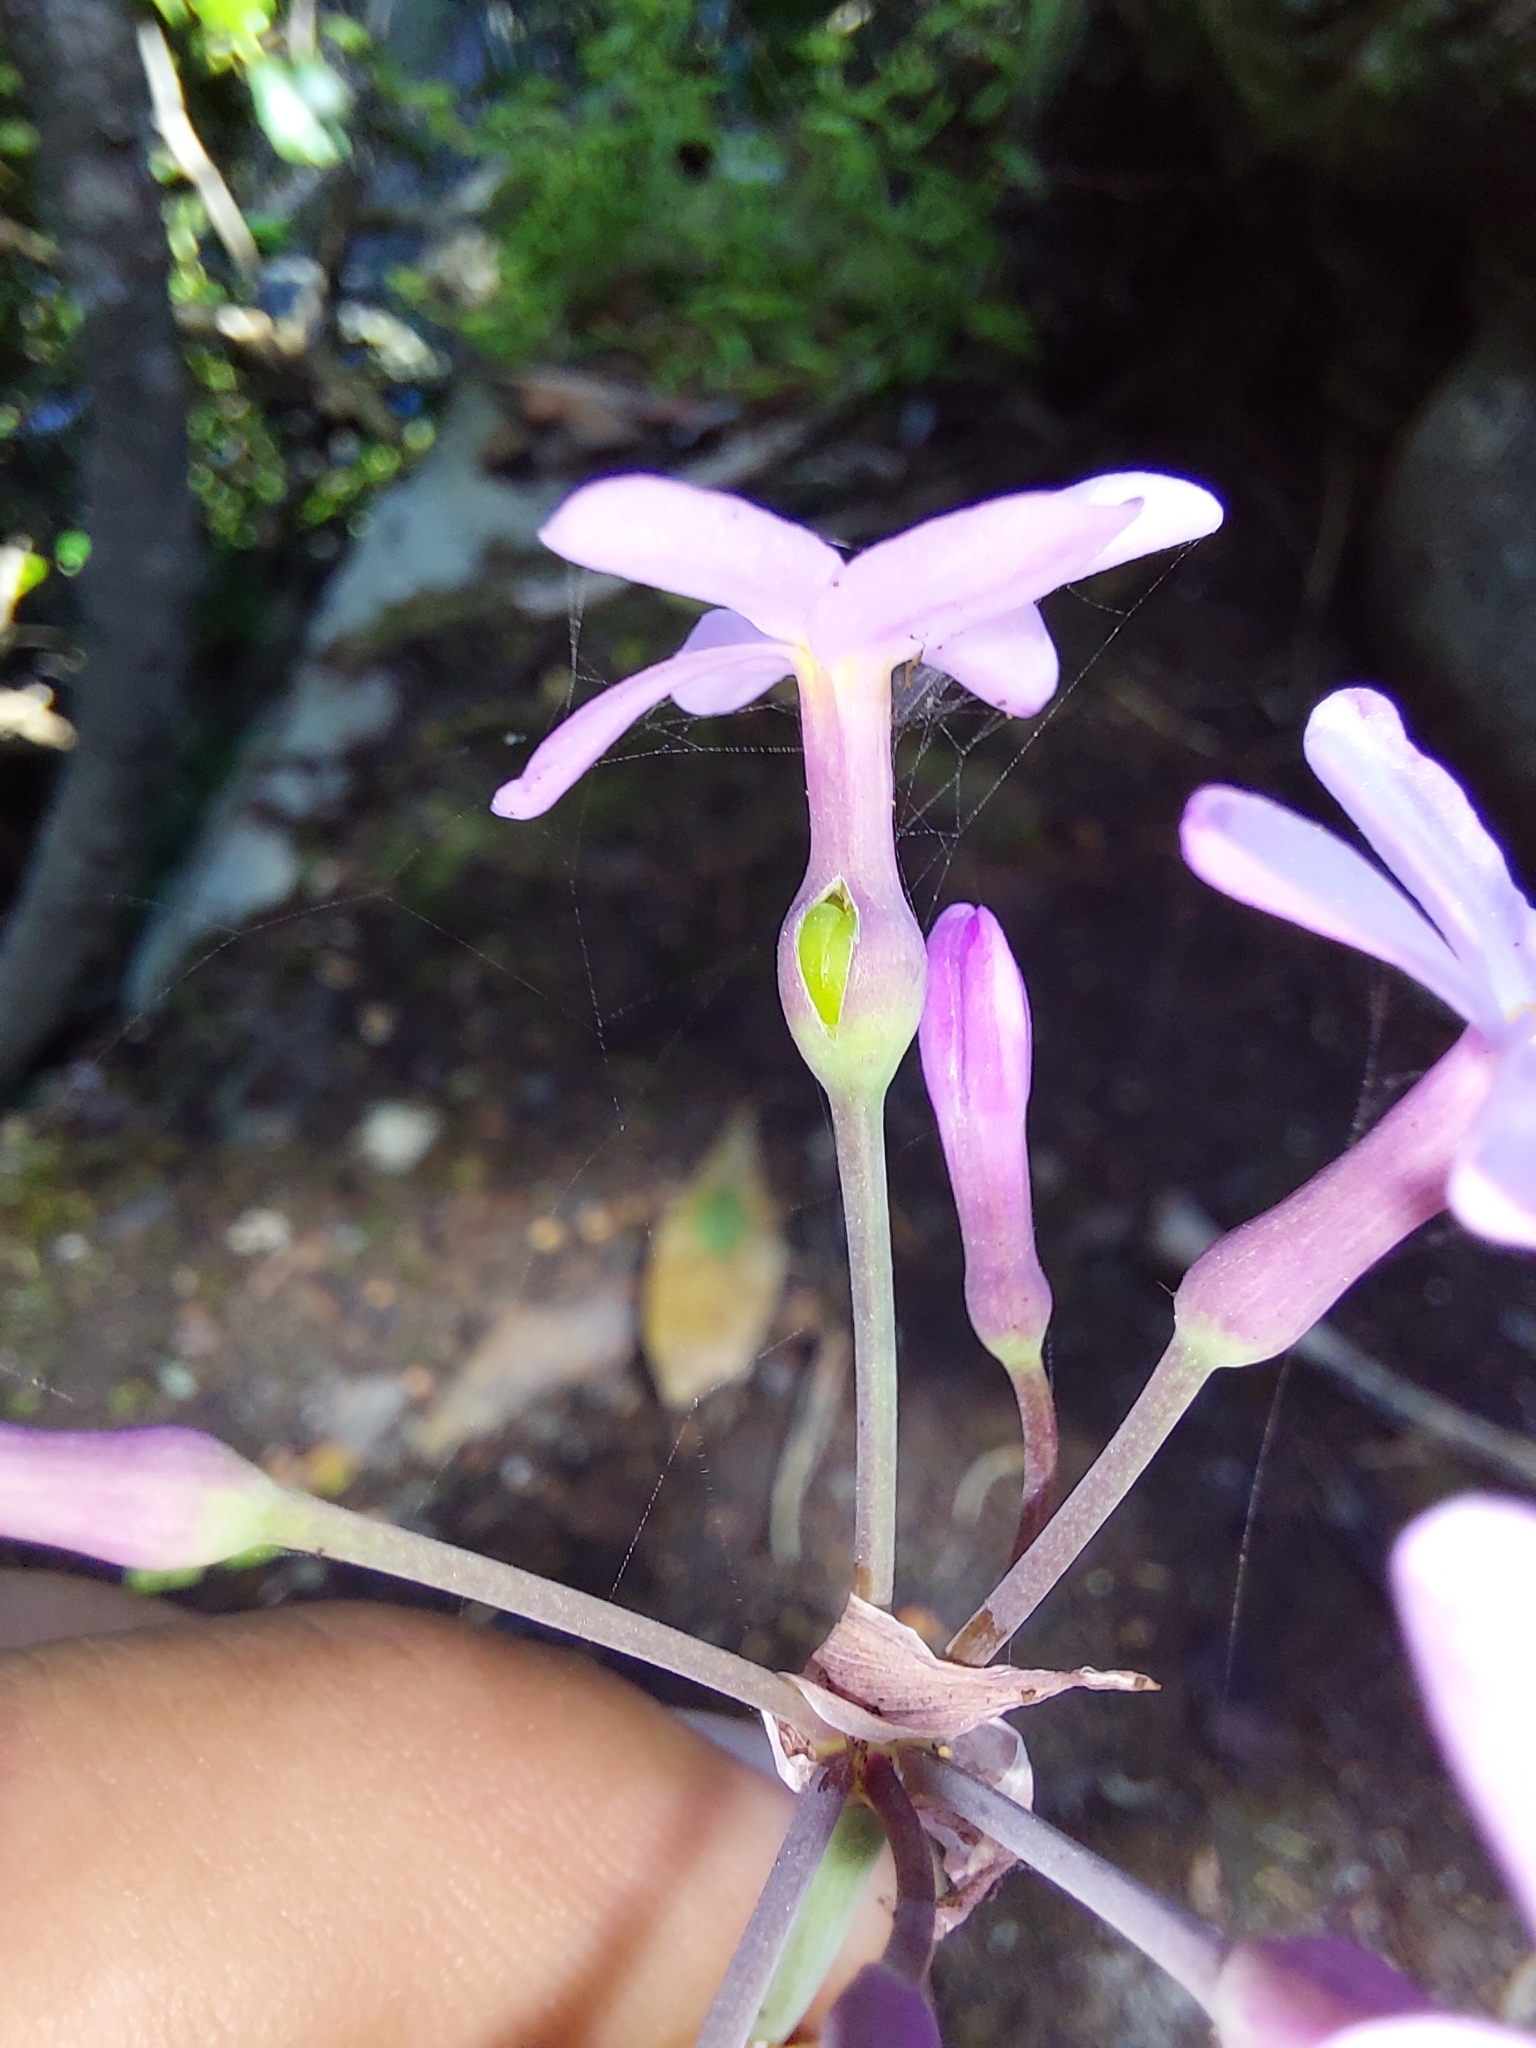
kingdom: Plantae
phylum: Tracheophyta
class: Liliopsida
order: Asparagales
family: Amaryllidaceae
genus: Tulbaghia
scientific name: Tulbaghia maritima
